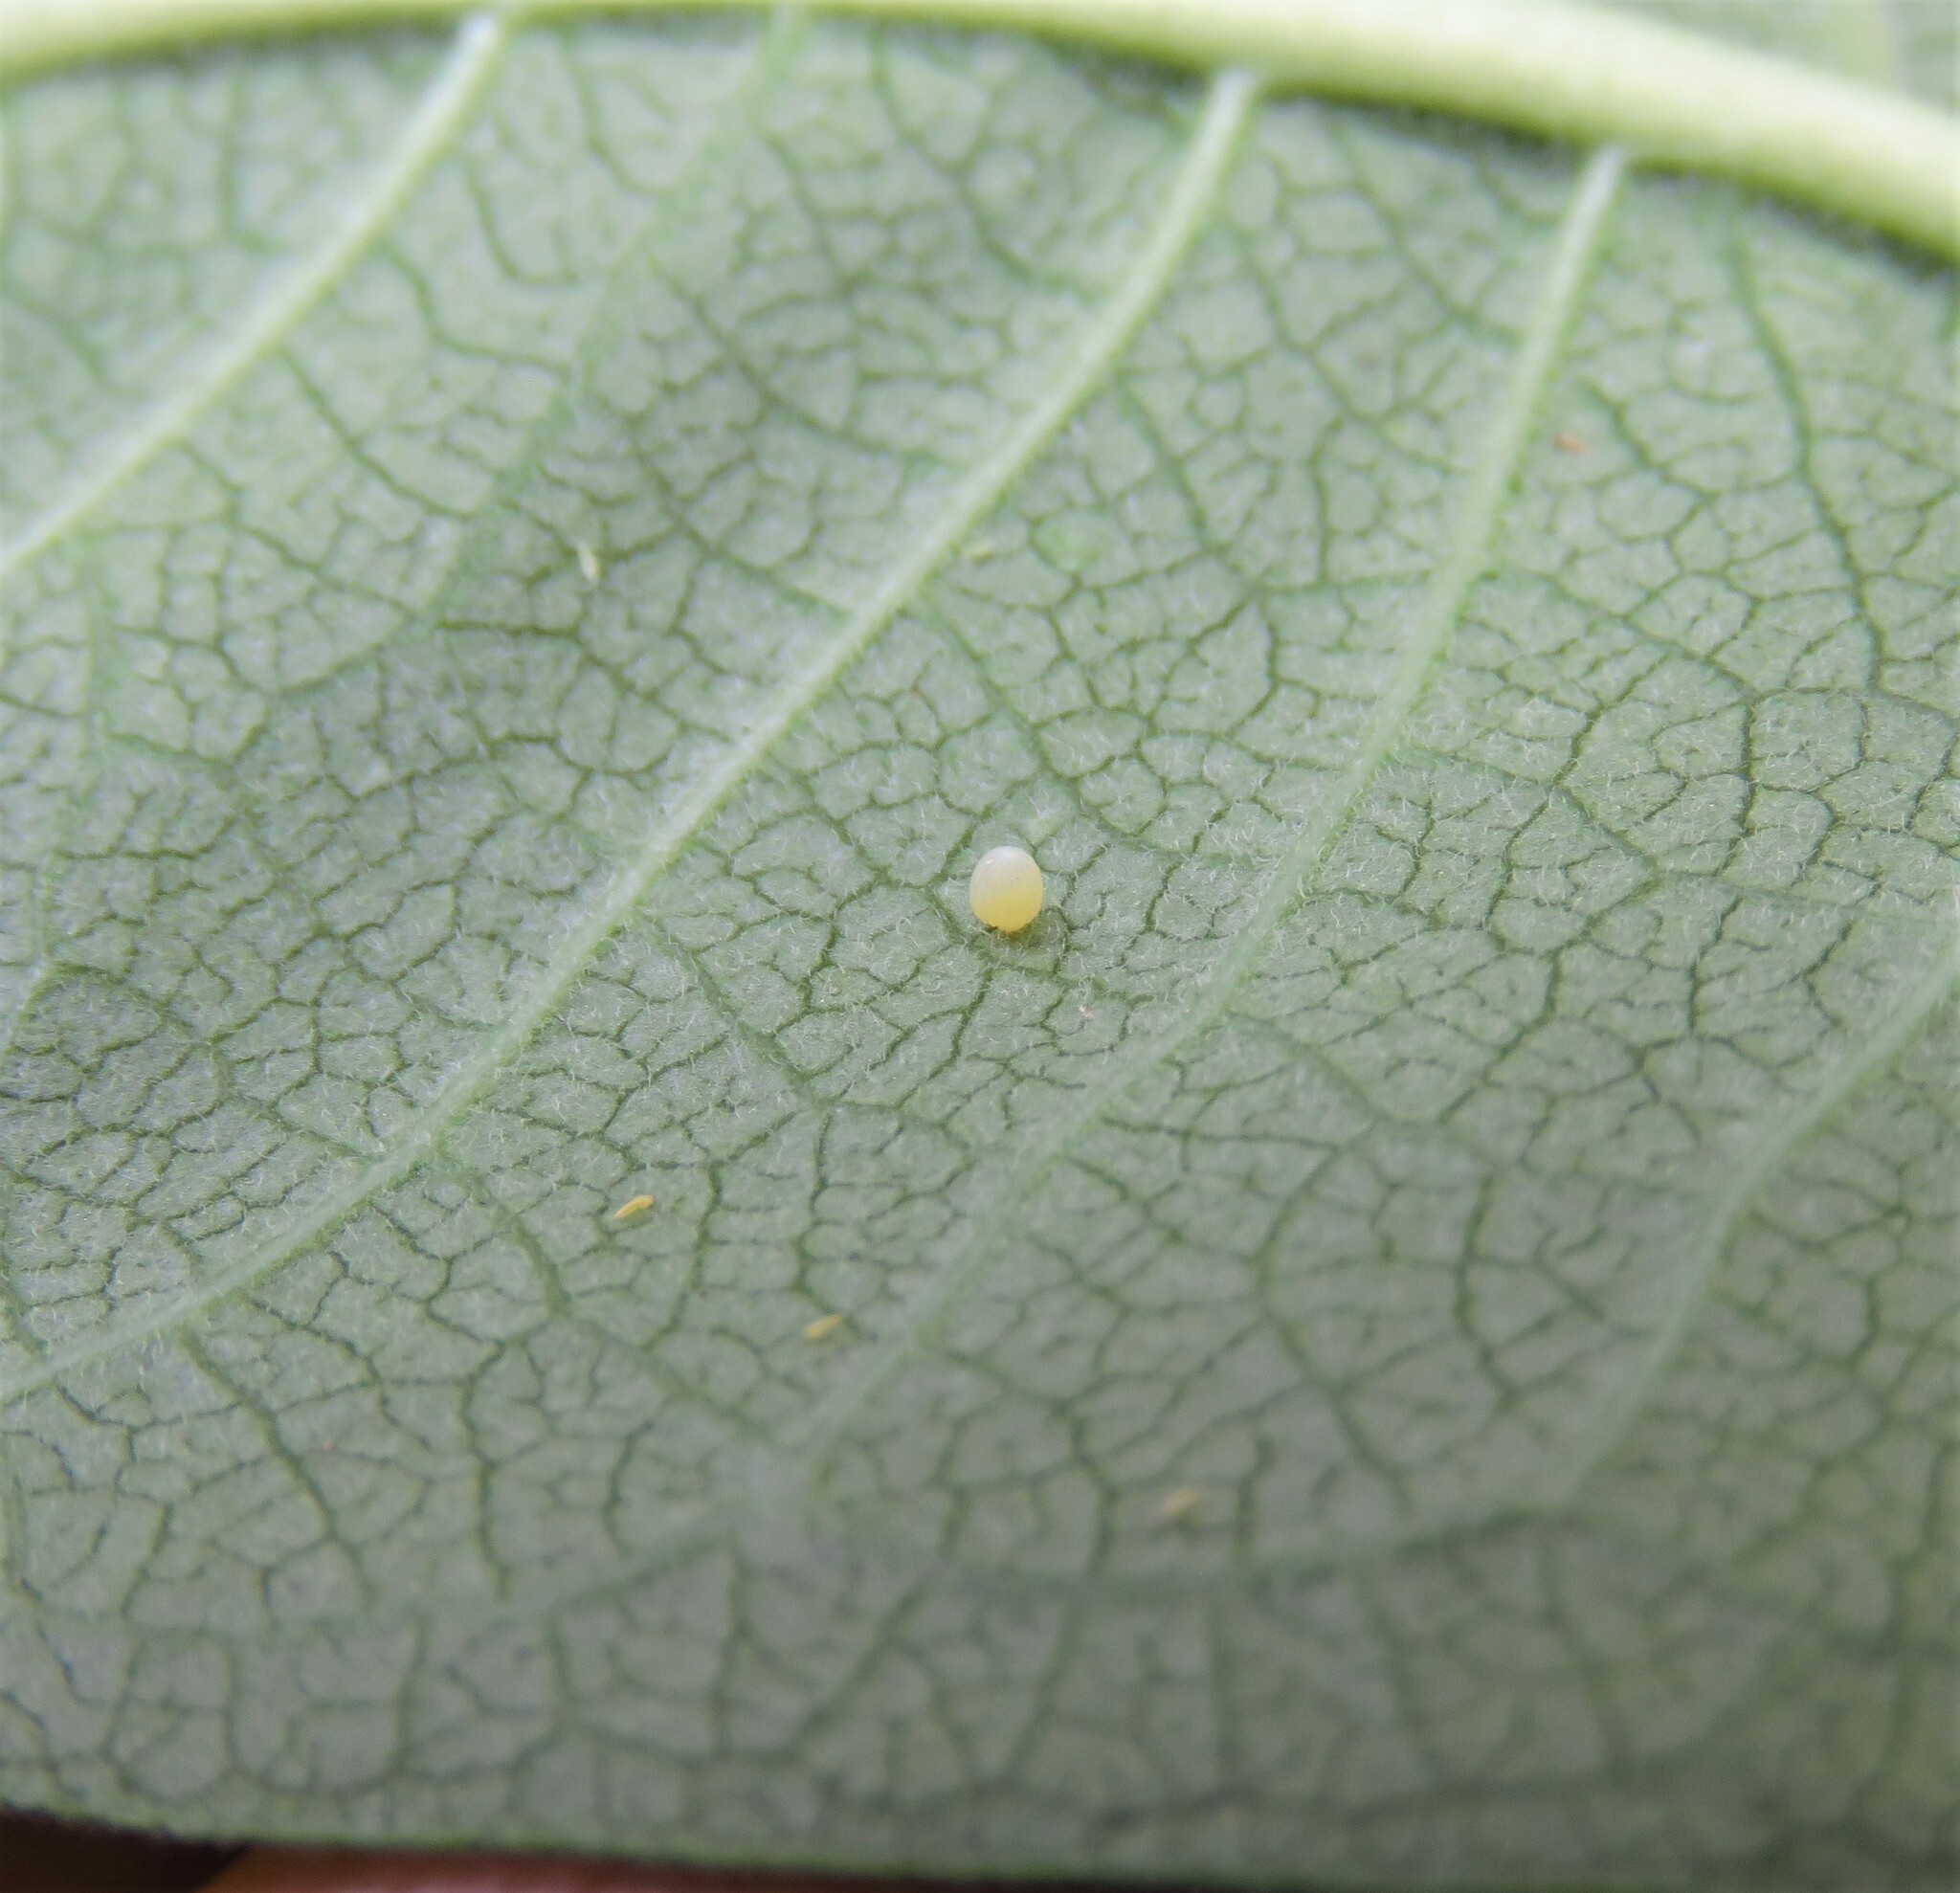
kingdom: Animalia
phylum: Arthropoda
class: Insecta
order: Lepidoptera
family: Nymphalidae
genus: Danaus
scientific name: Danaus plexippus
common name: Monarch
